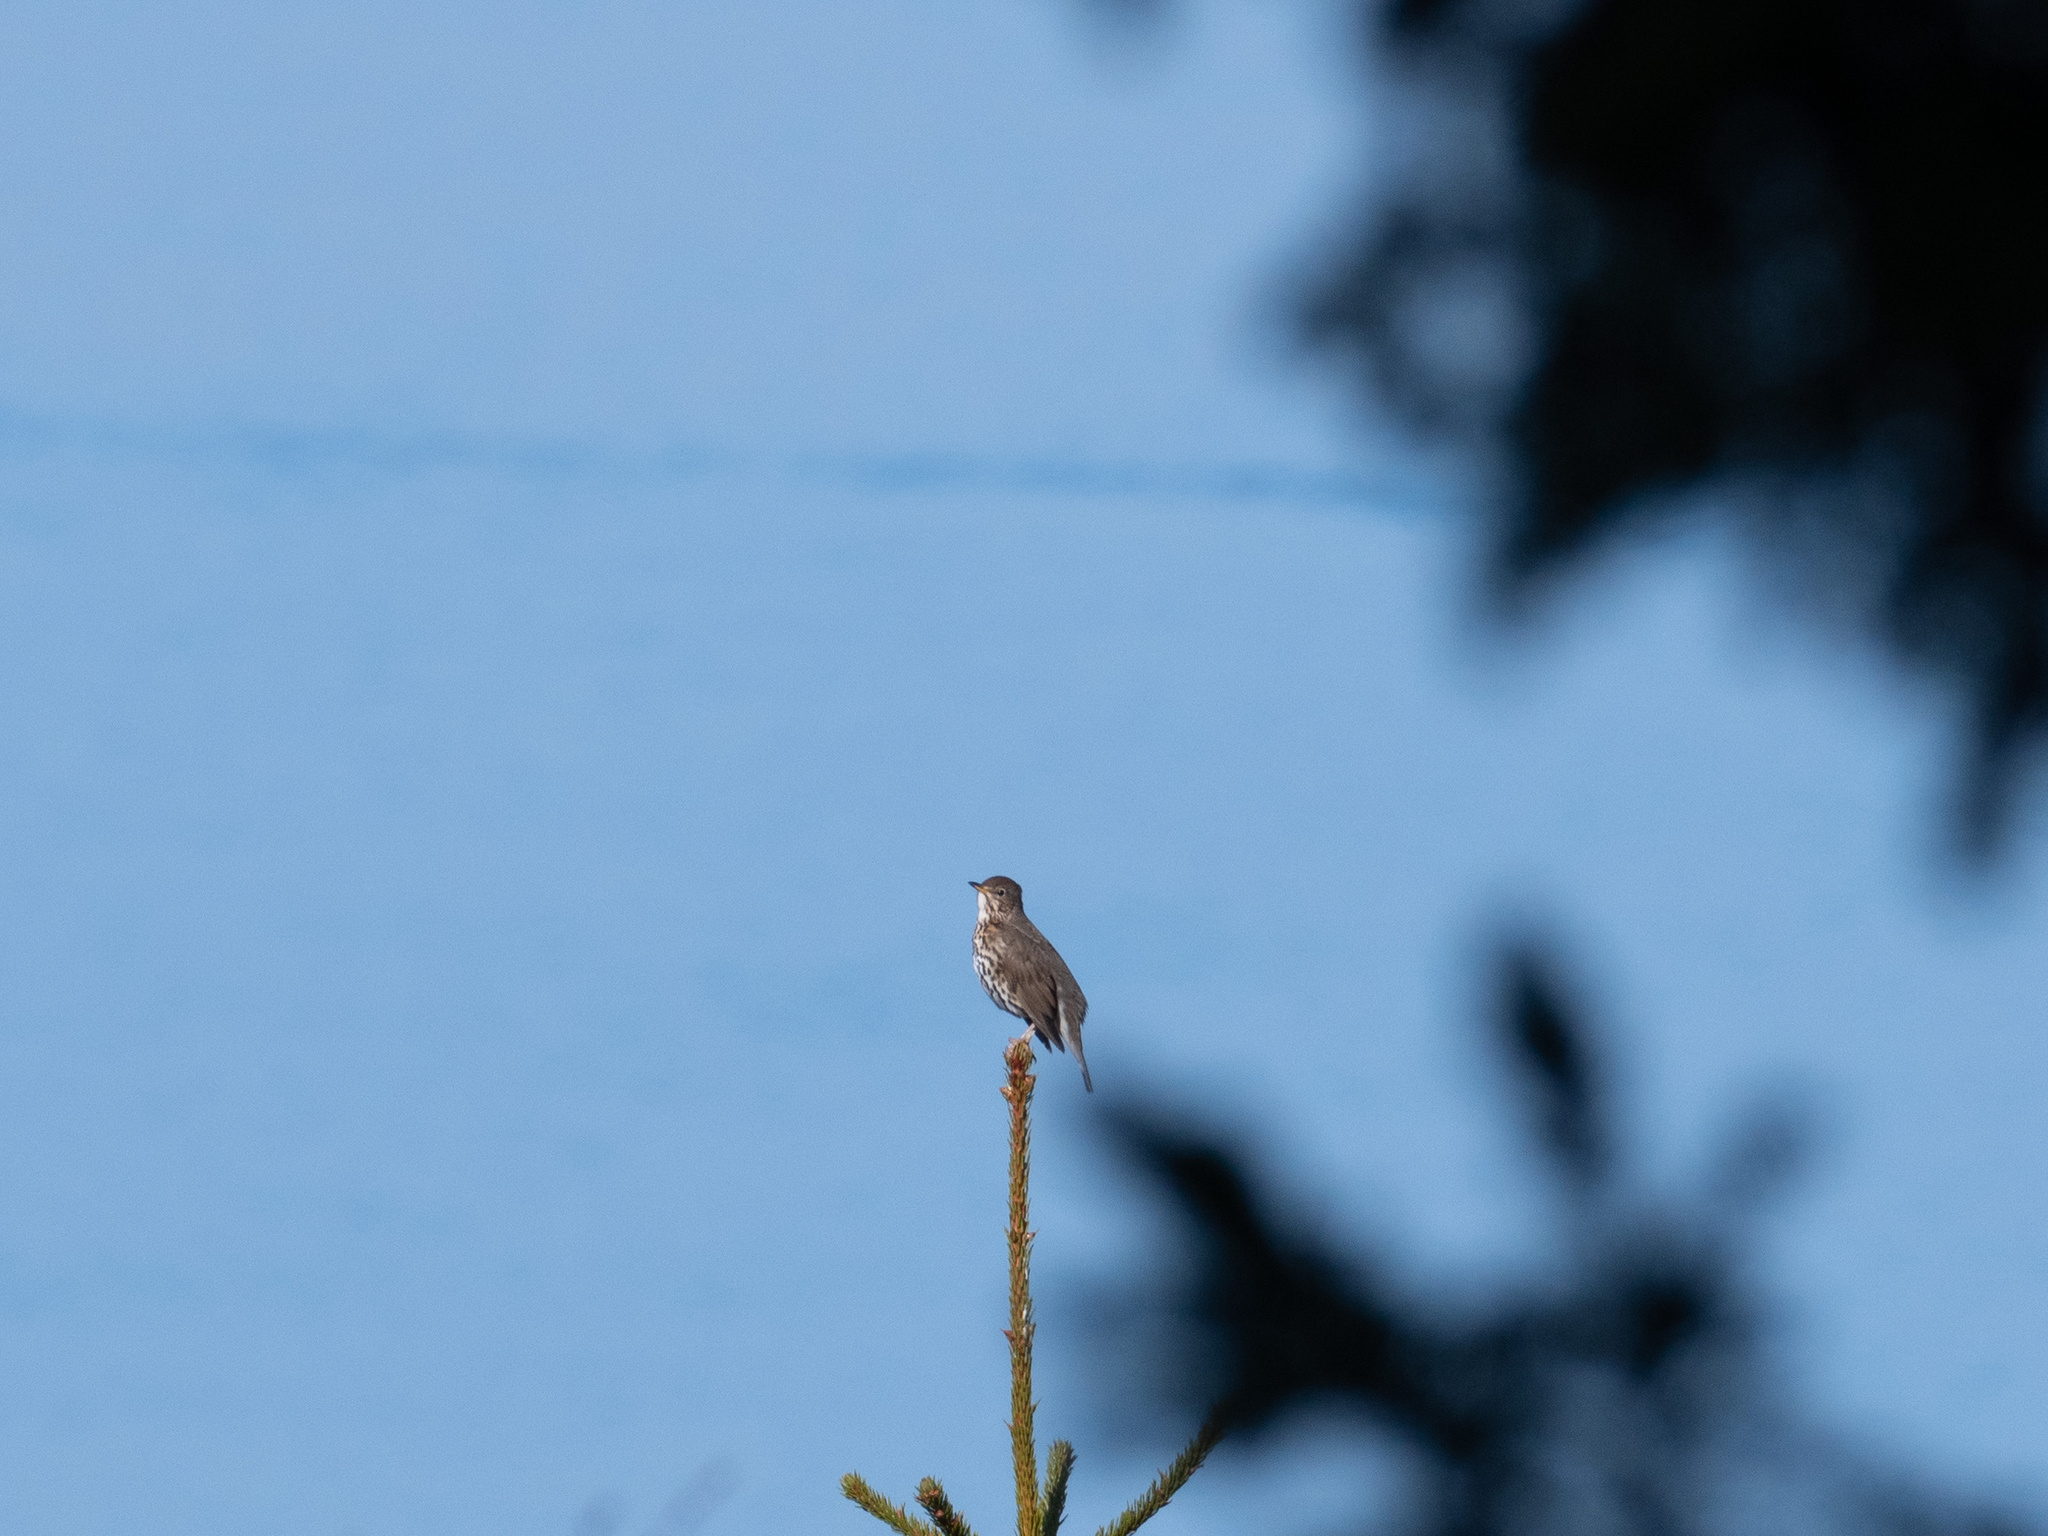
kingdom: Animalia
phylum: Chordata
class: Aves
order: Passeriformes
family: Turdidae
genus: Turdus
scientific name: Turdus philomelos
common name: Song thrush
